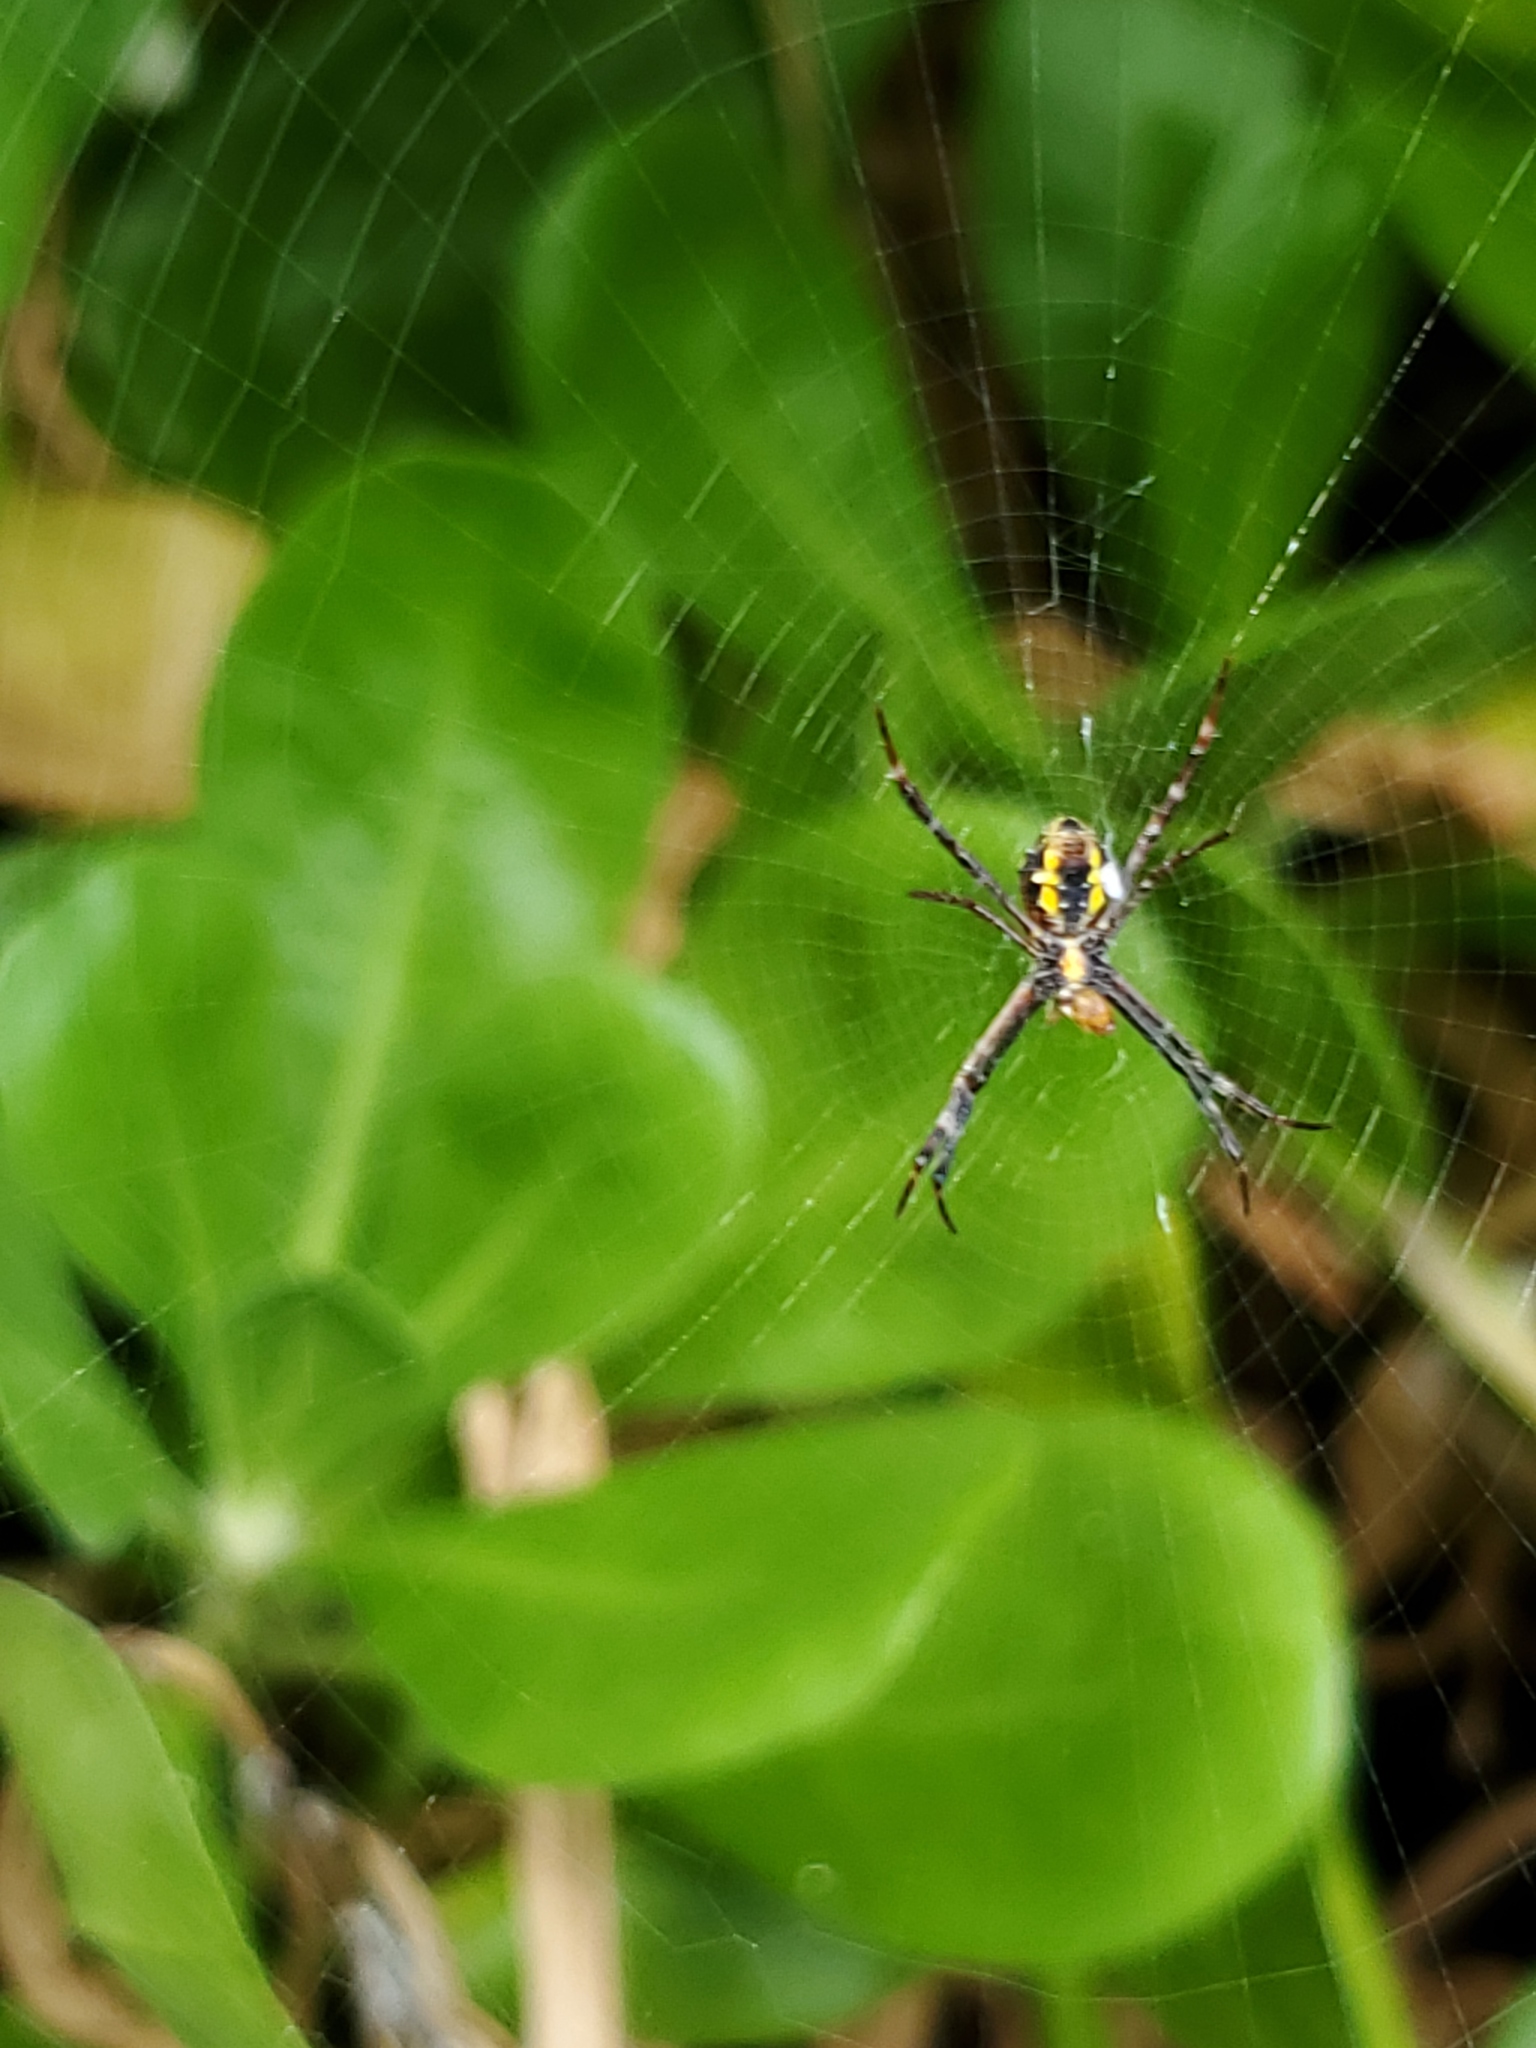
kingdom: Animalia
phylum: Arthropoda
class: Arachnida
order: Araneae
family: Araneidae
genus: Argiope
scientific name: Argiope appensa
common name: Garden spider
